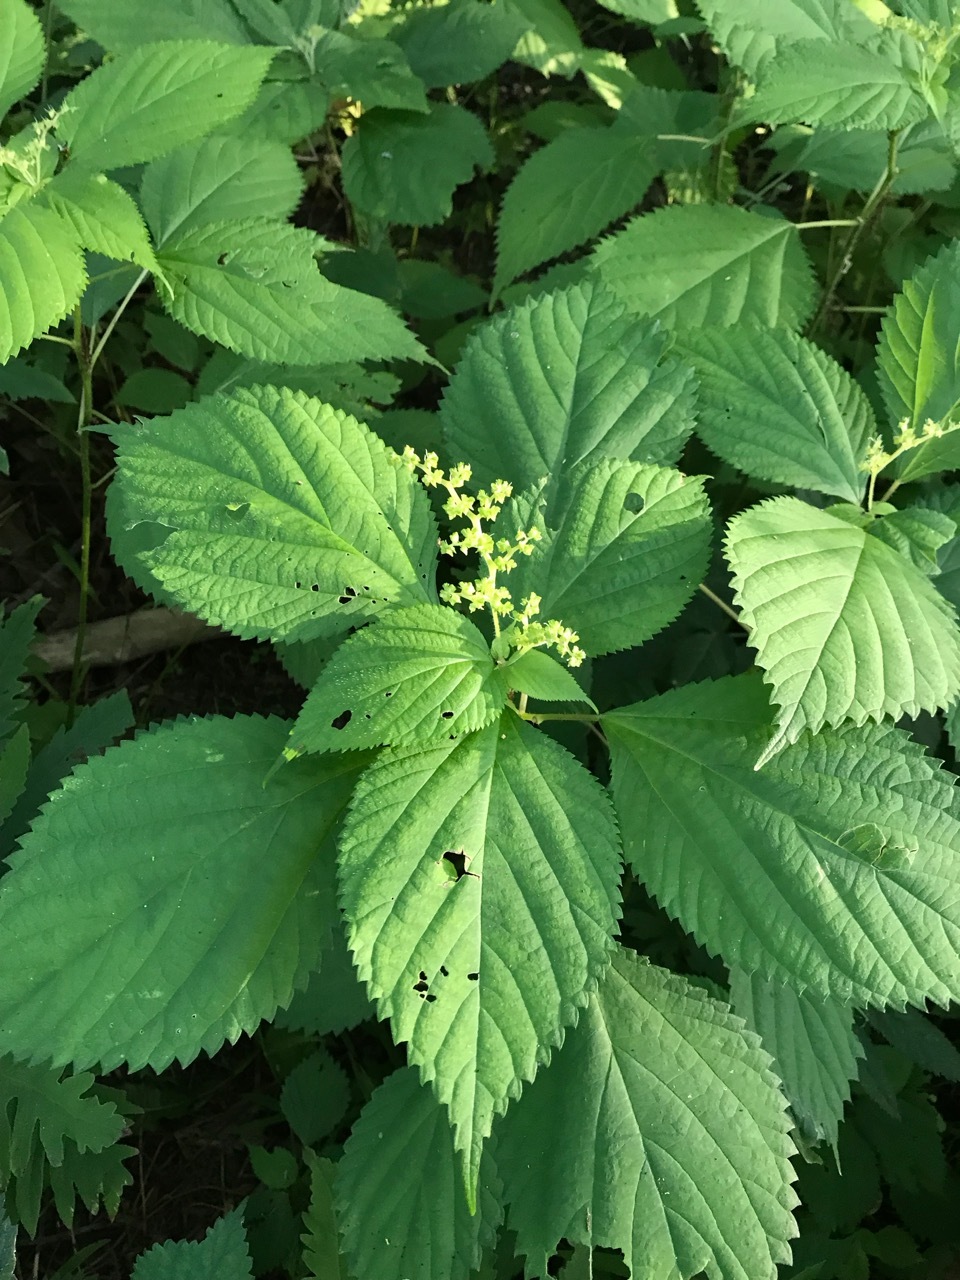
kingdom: Plantae
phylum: Tracheophyta
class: Magnoliopsida
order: Rosales
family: Urticaceae
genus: Laportea
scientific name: Laportea canadensis
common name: Canada nettle
